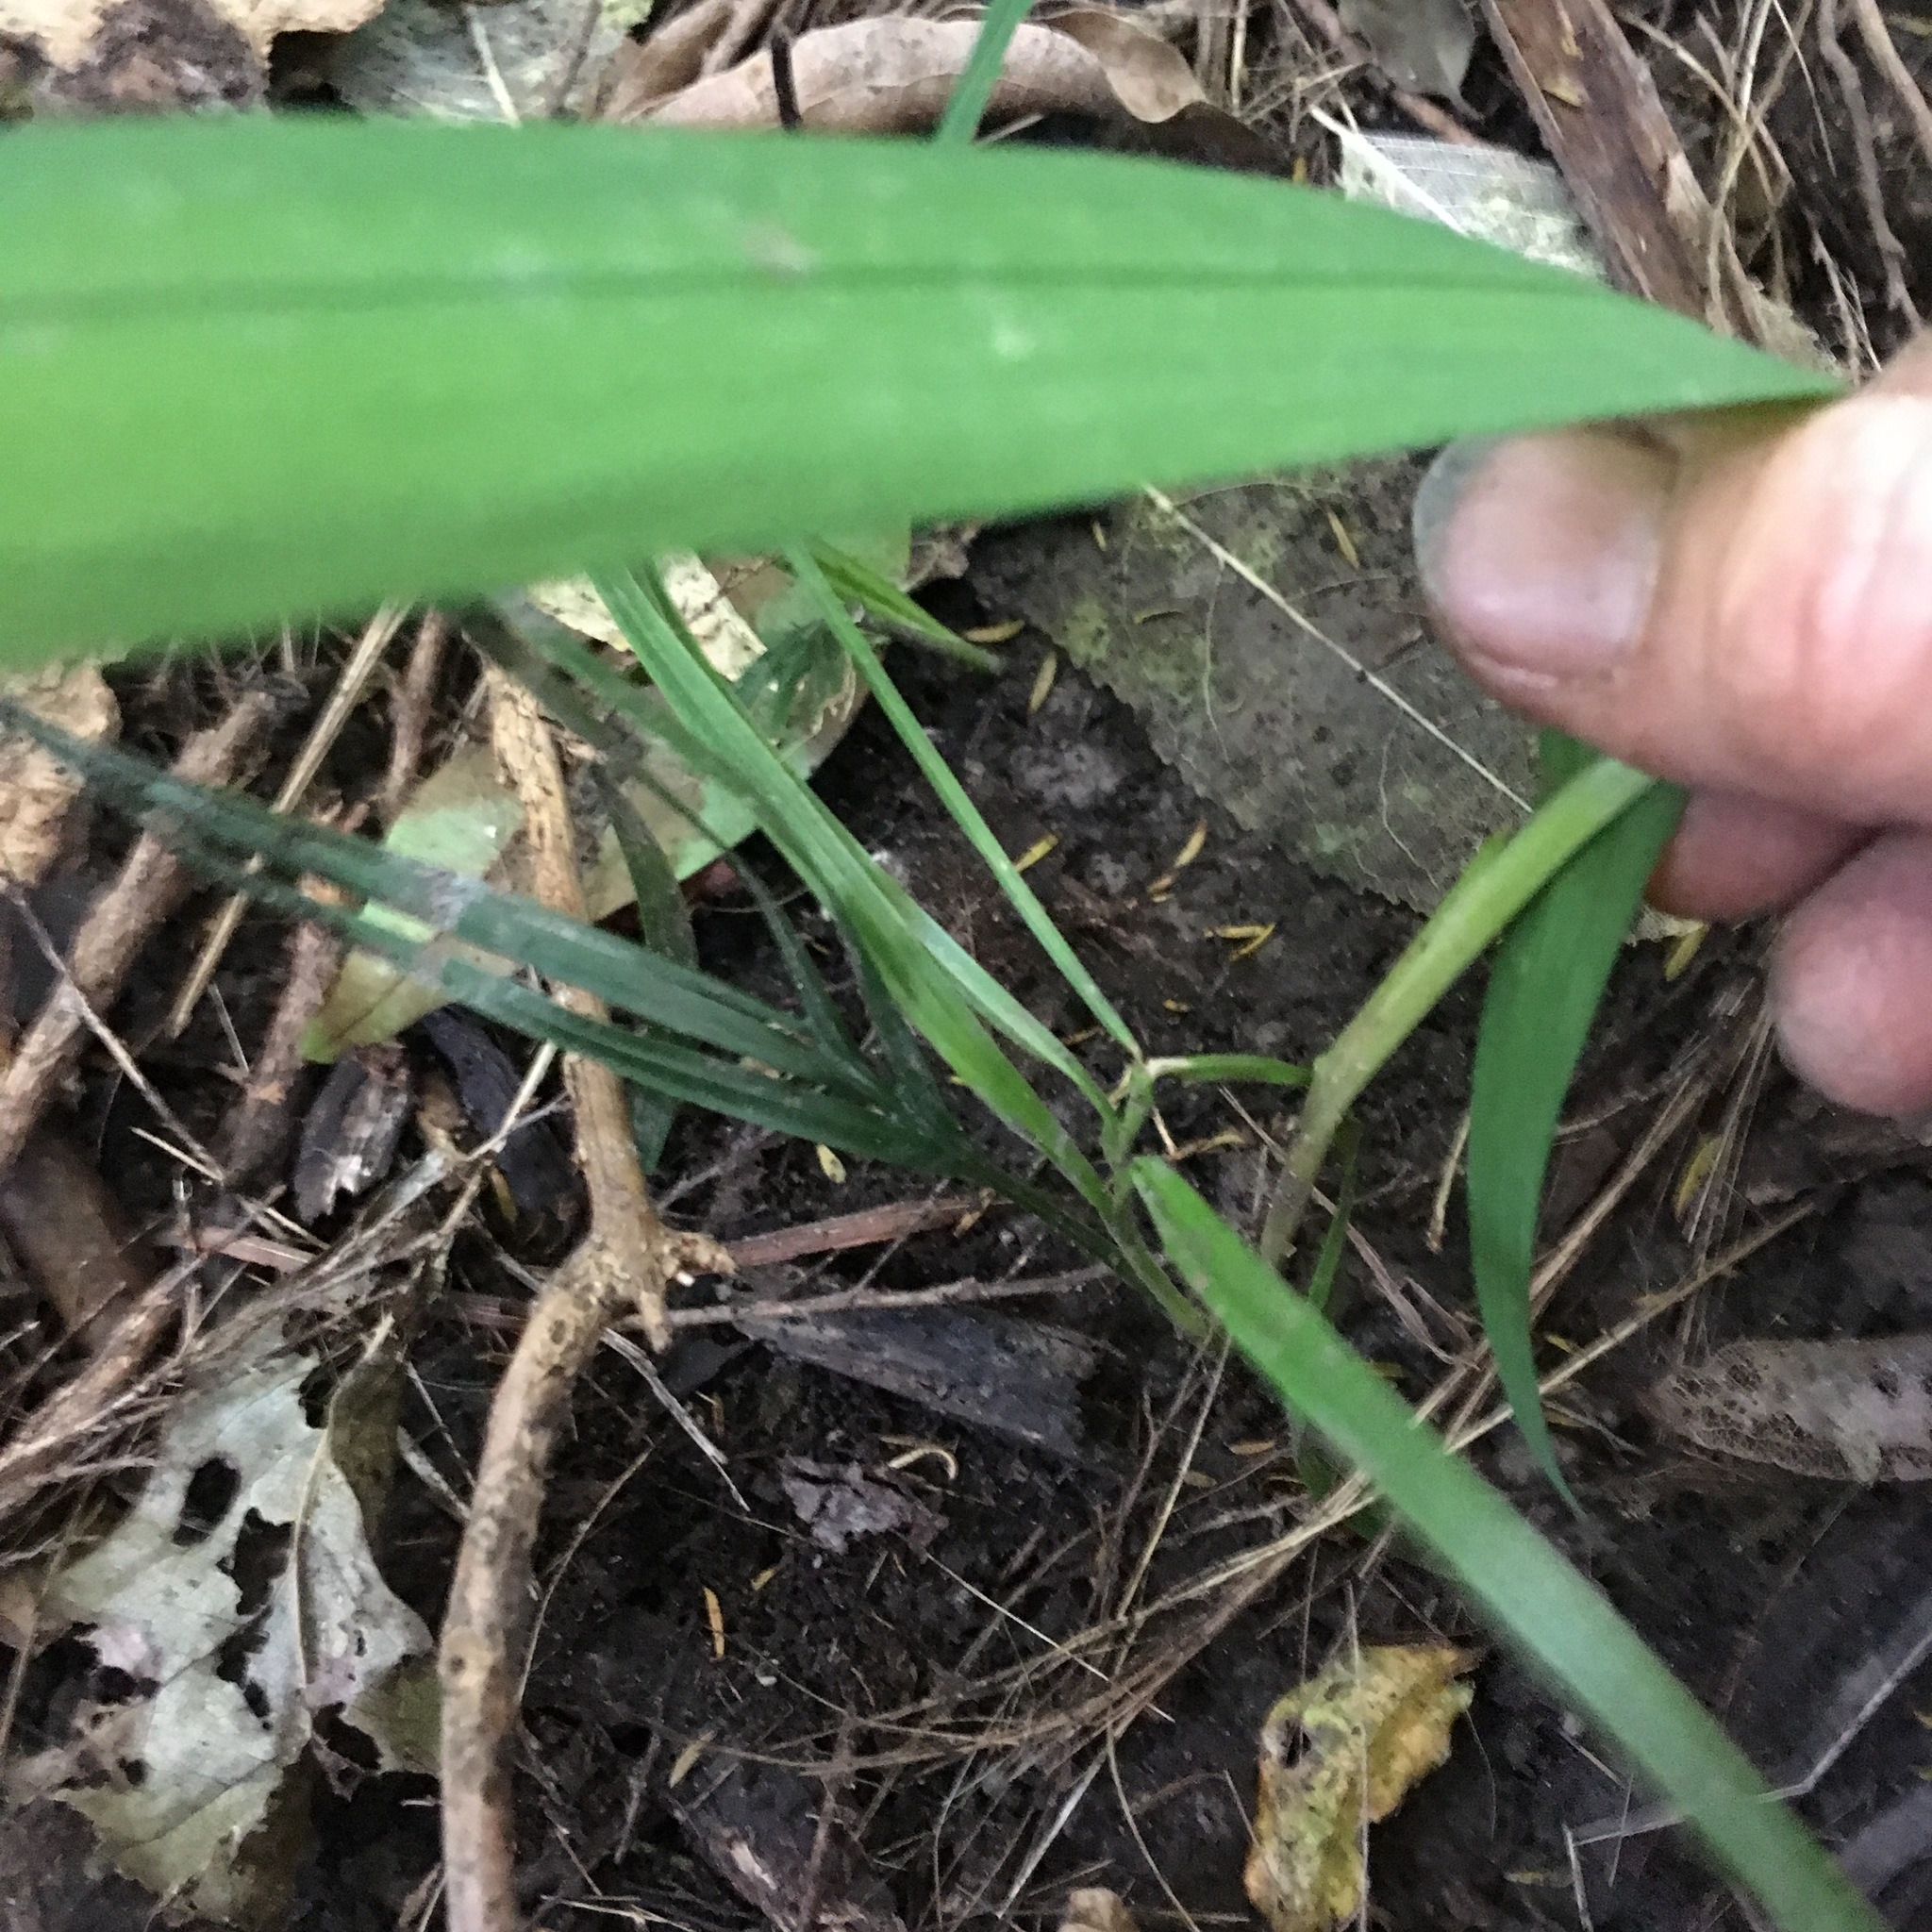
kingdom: Plantae
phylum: Tracheophyta
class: Liliopsida
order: Arecales
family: Arecaceae
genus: Rhopalostylis
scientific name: Rhopalostylis sapida
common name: Feather-duster palm
